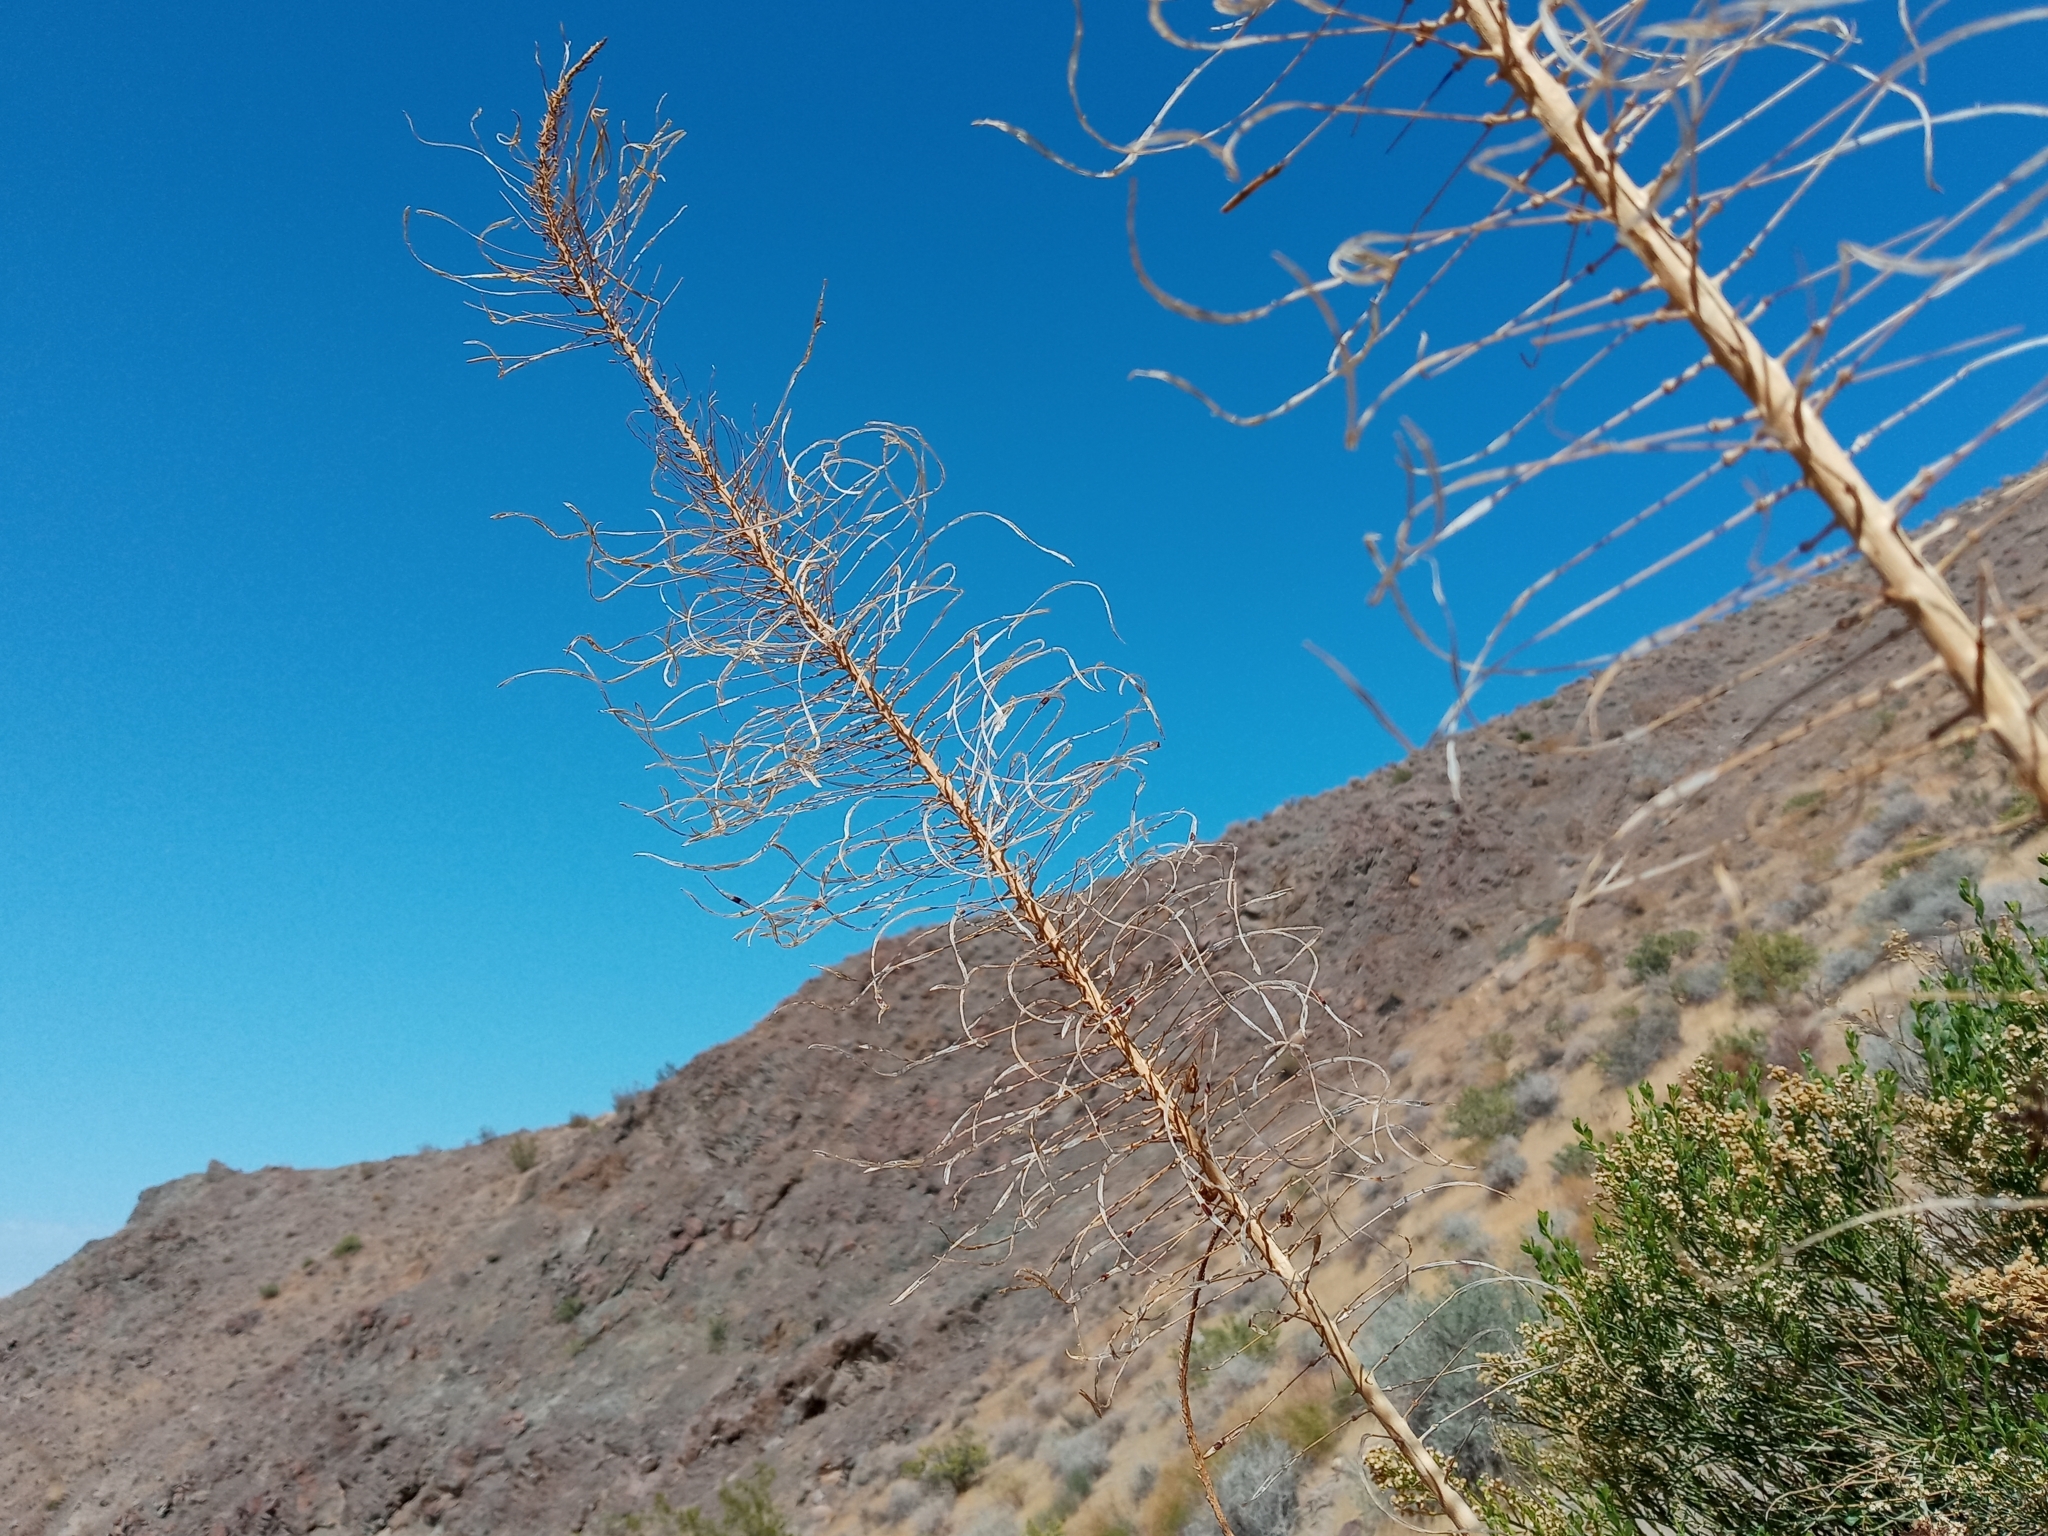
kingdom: Plantae
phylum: Tracheophyta
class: Magnoliopsida
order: Brassicales
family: Brassicaceae
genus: Stanleya
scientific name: Stanleya pinnata
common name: Prince's-plume
